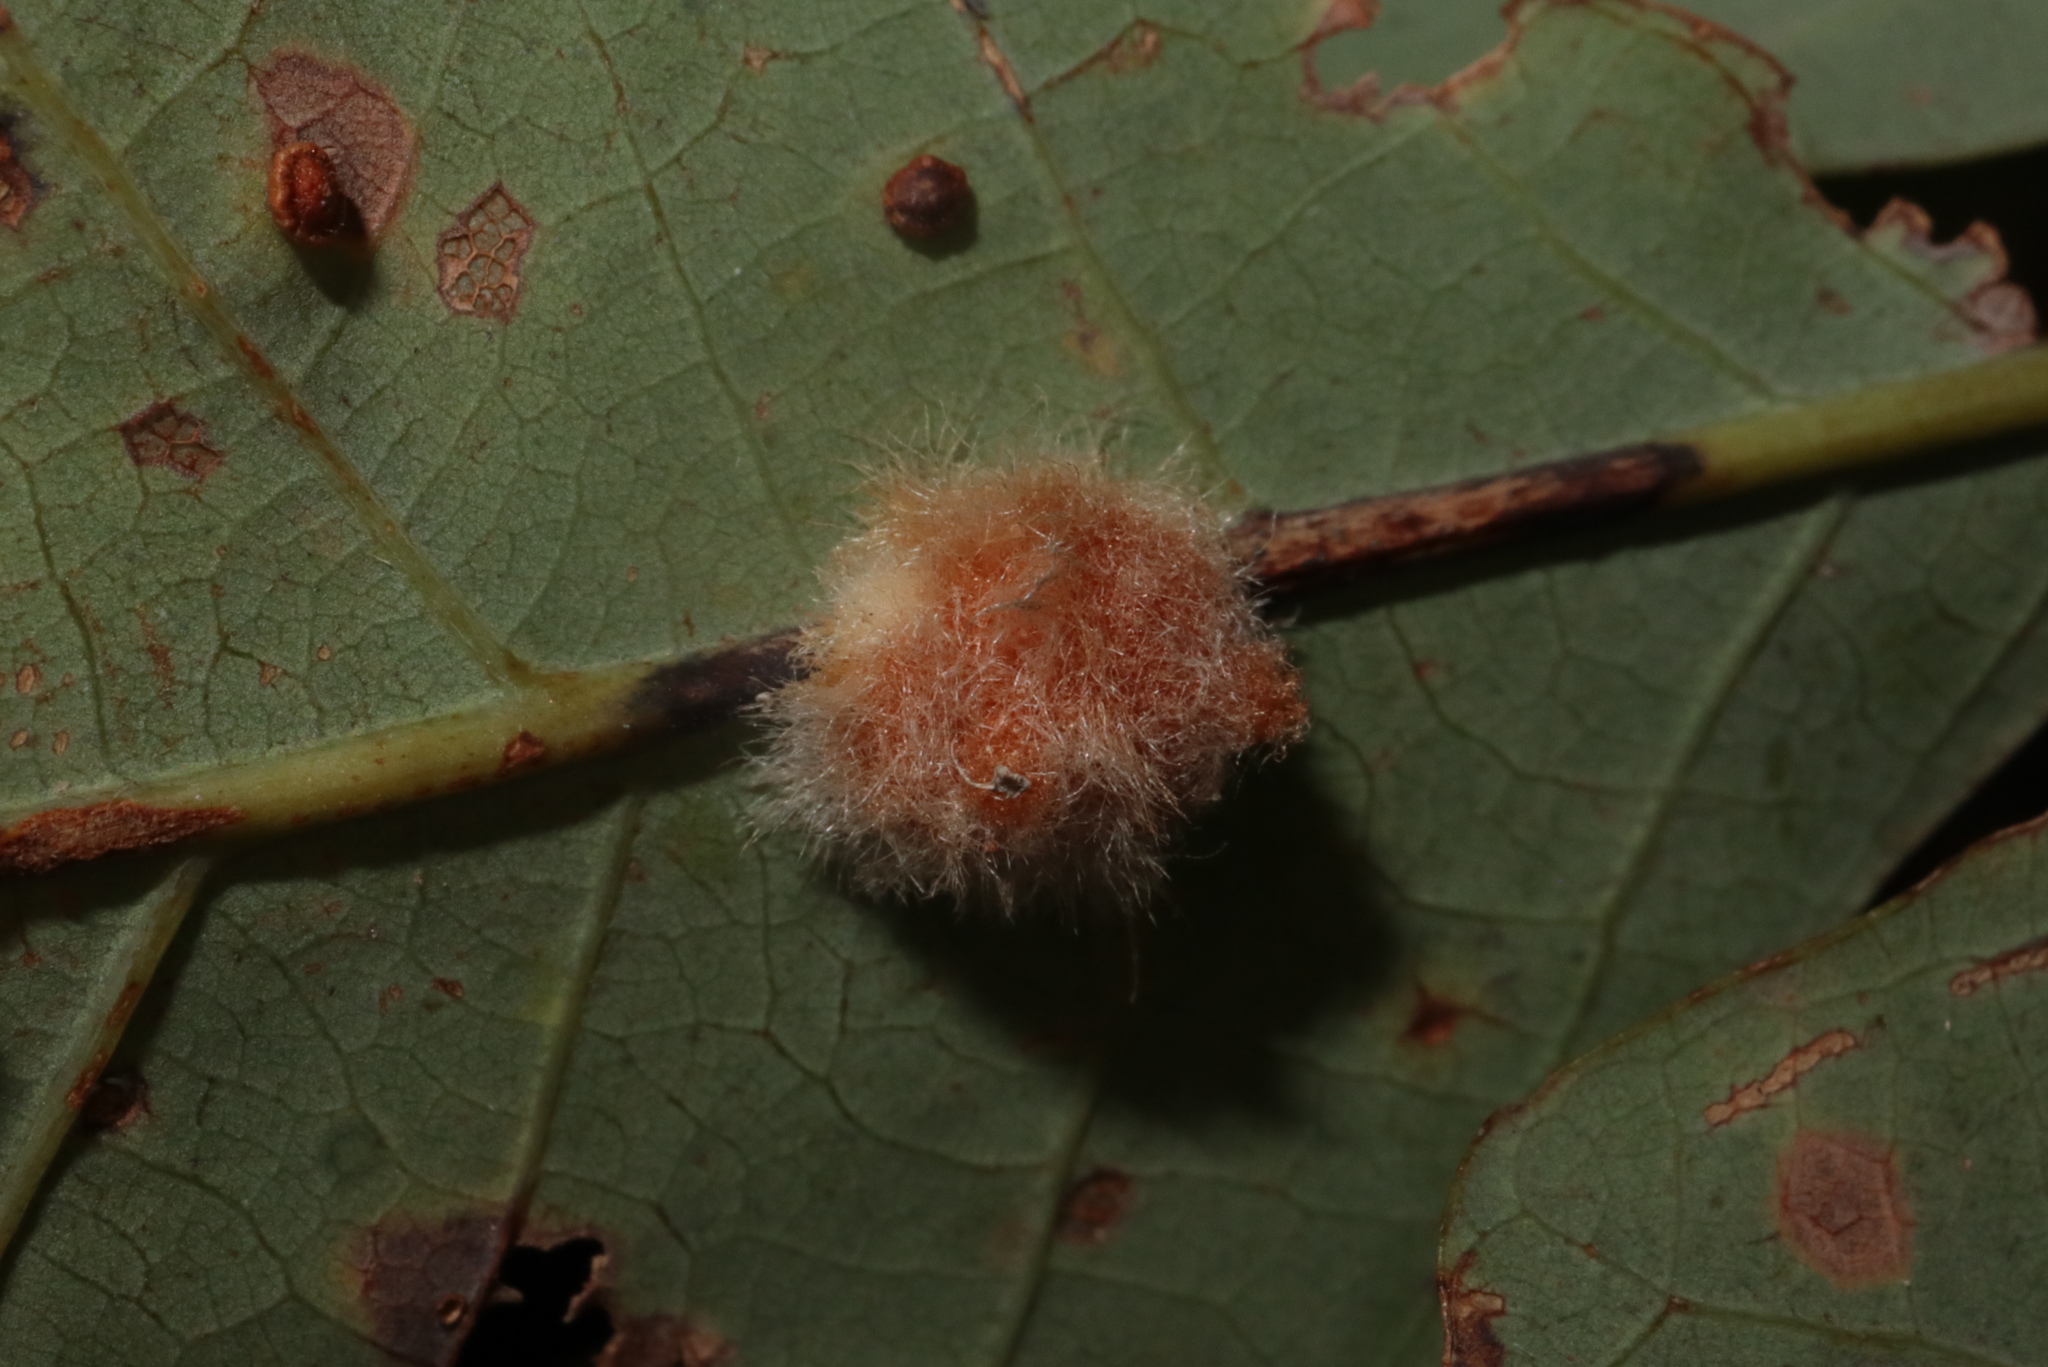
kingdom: Animalia
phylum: Arthropoda
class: Insecta
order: Hymenoptera
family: Cynipidae
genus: Andricus
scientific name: Andricus quercusflocci
